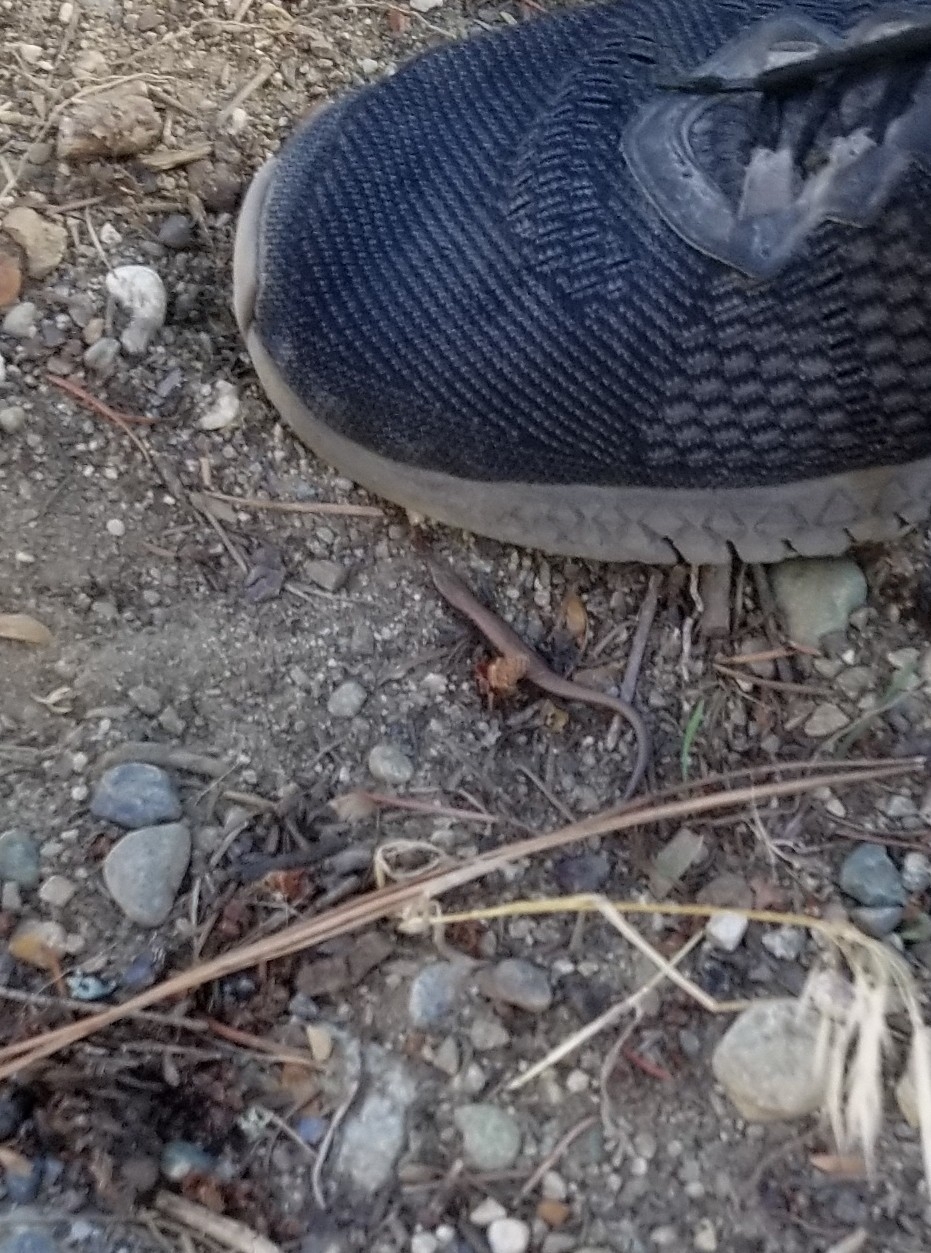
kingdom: Animalia
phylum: Chordata
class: Squamata
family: Anguidae
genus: Elgaria
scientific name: Elgaria coerulea
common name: Northern alligator lizard
